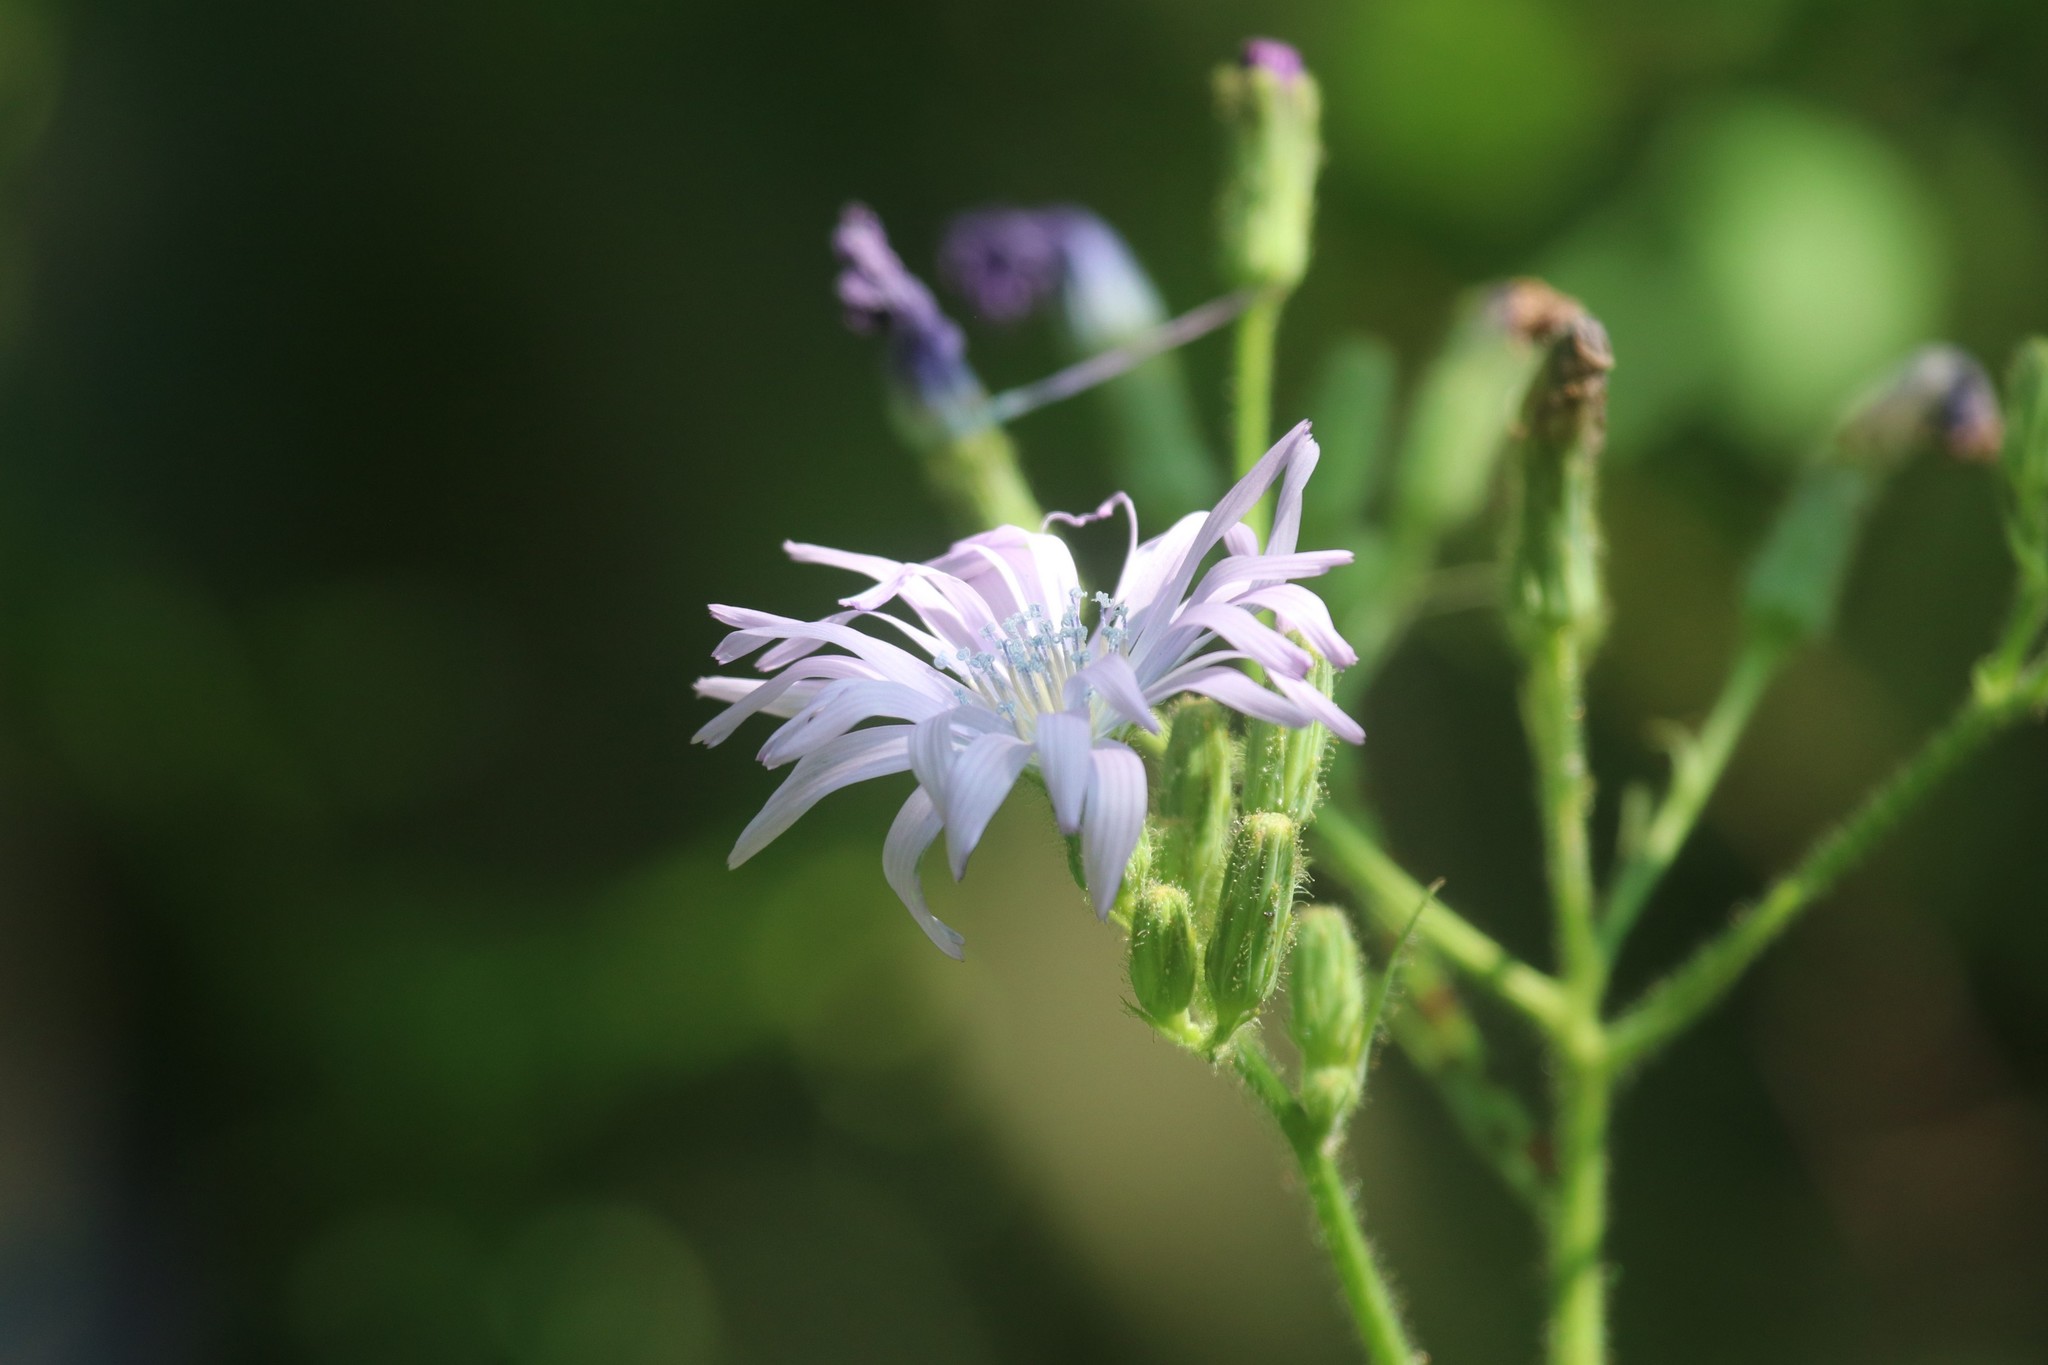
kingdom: Plantae
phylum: Tracheophyta
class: Magnoliopsida
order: Asterales
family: Asteraceae
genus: Lactuca
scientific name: Lactuca macrophylla
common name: Common blue-sow-thistle
